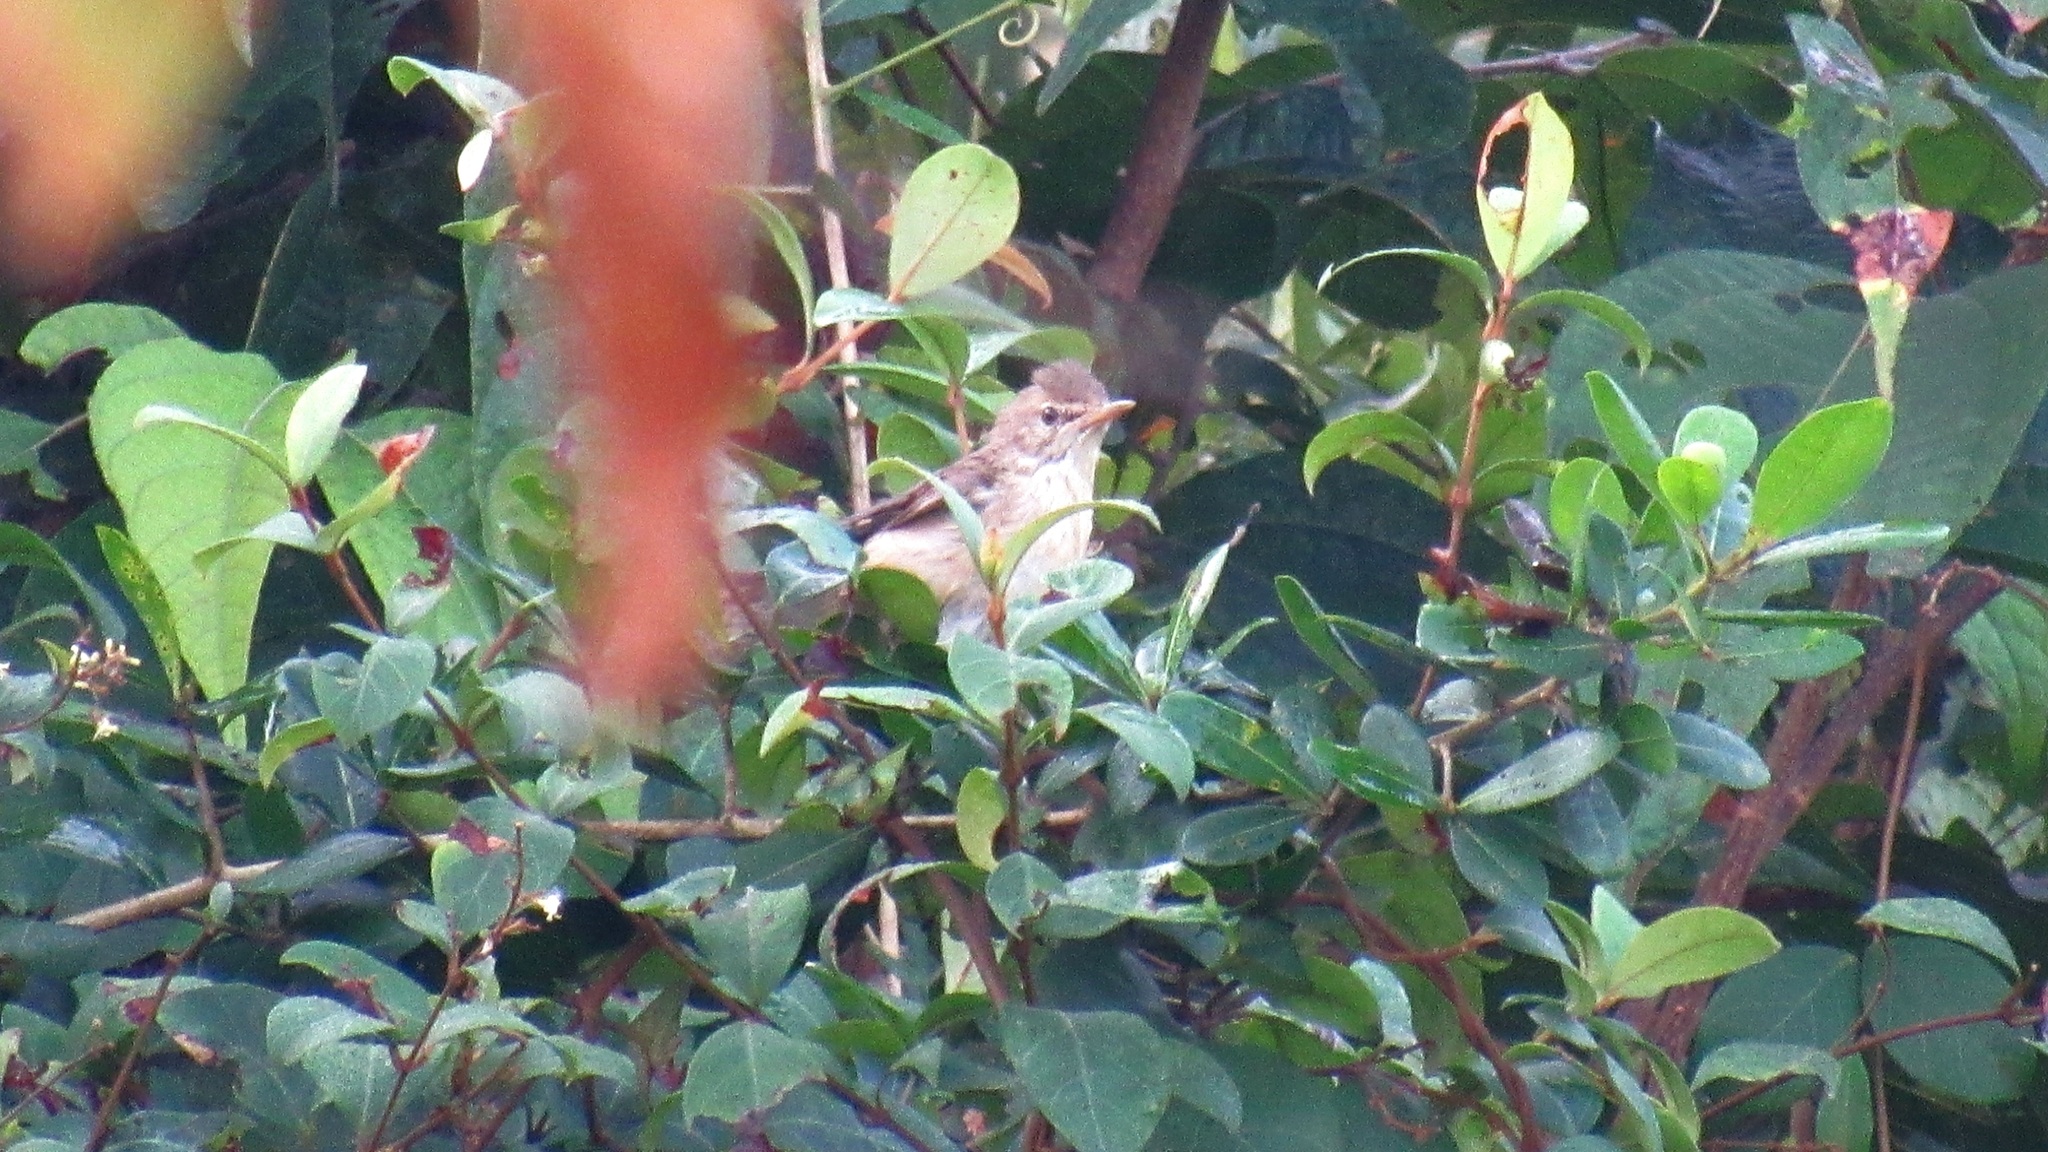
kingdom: Animalia
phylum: Chordata
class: Aves
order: Passeriformes
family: Acrocephalidae
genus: Acrocephalus
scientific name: Acrocephalus dumetorum
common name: Blyth's reed warbler
